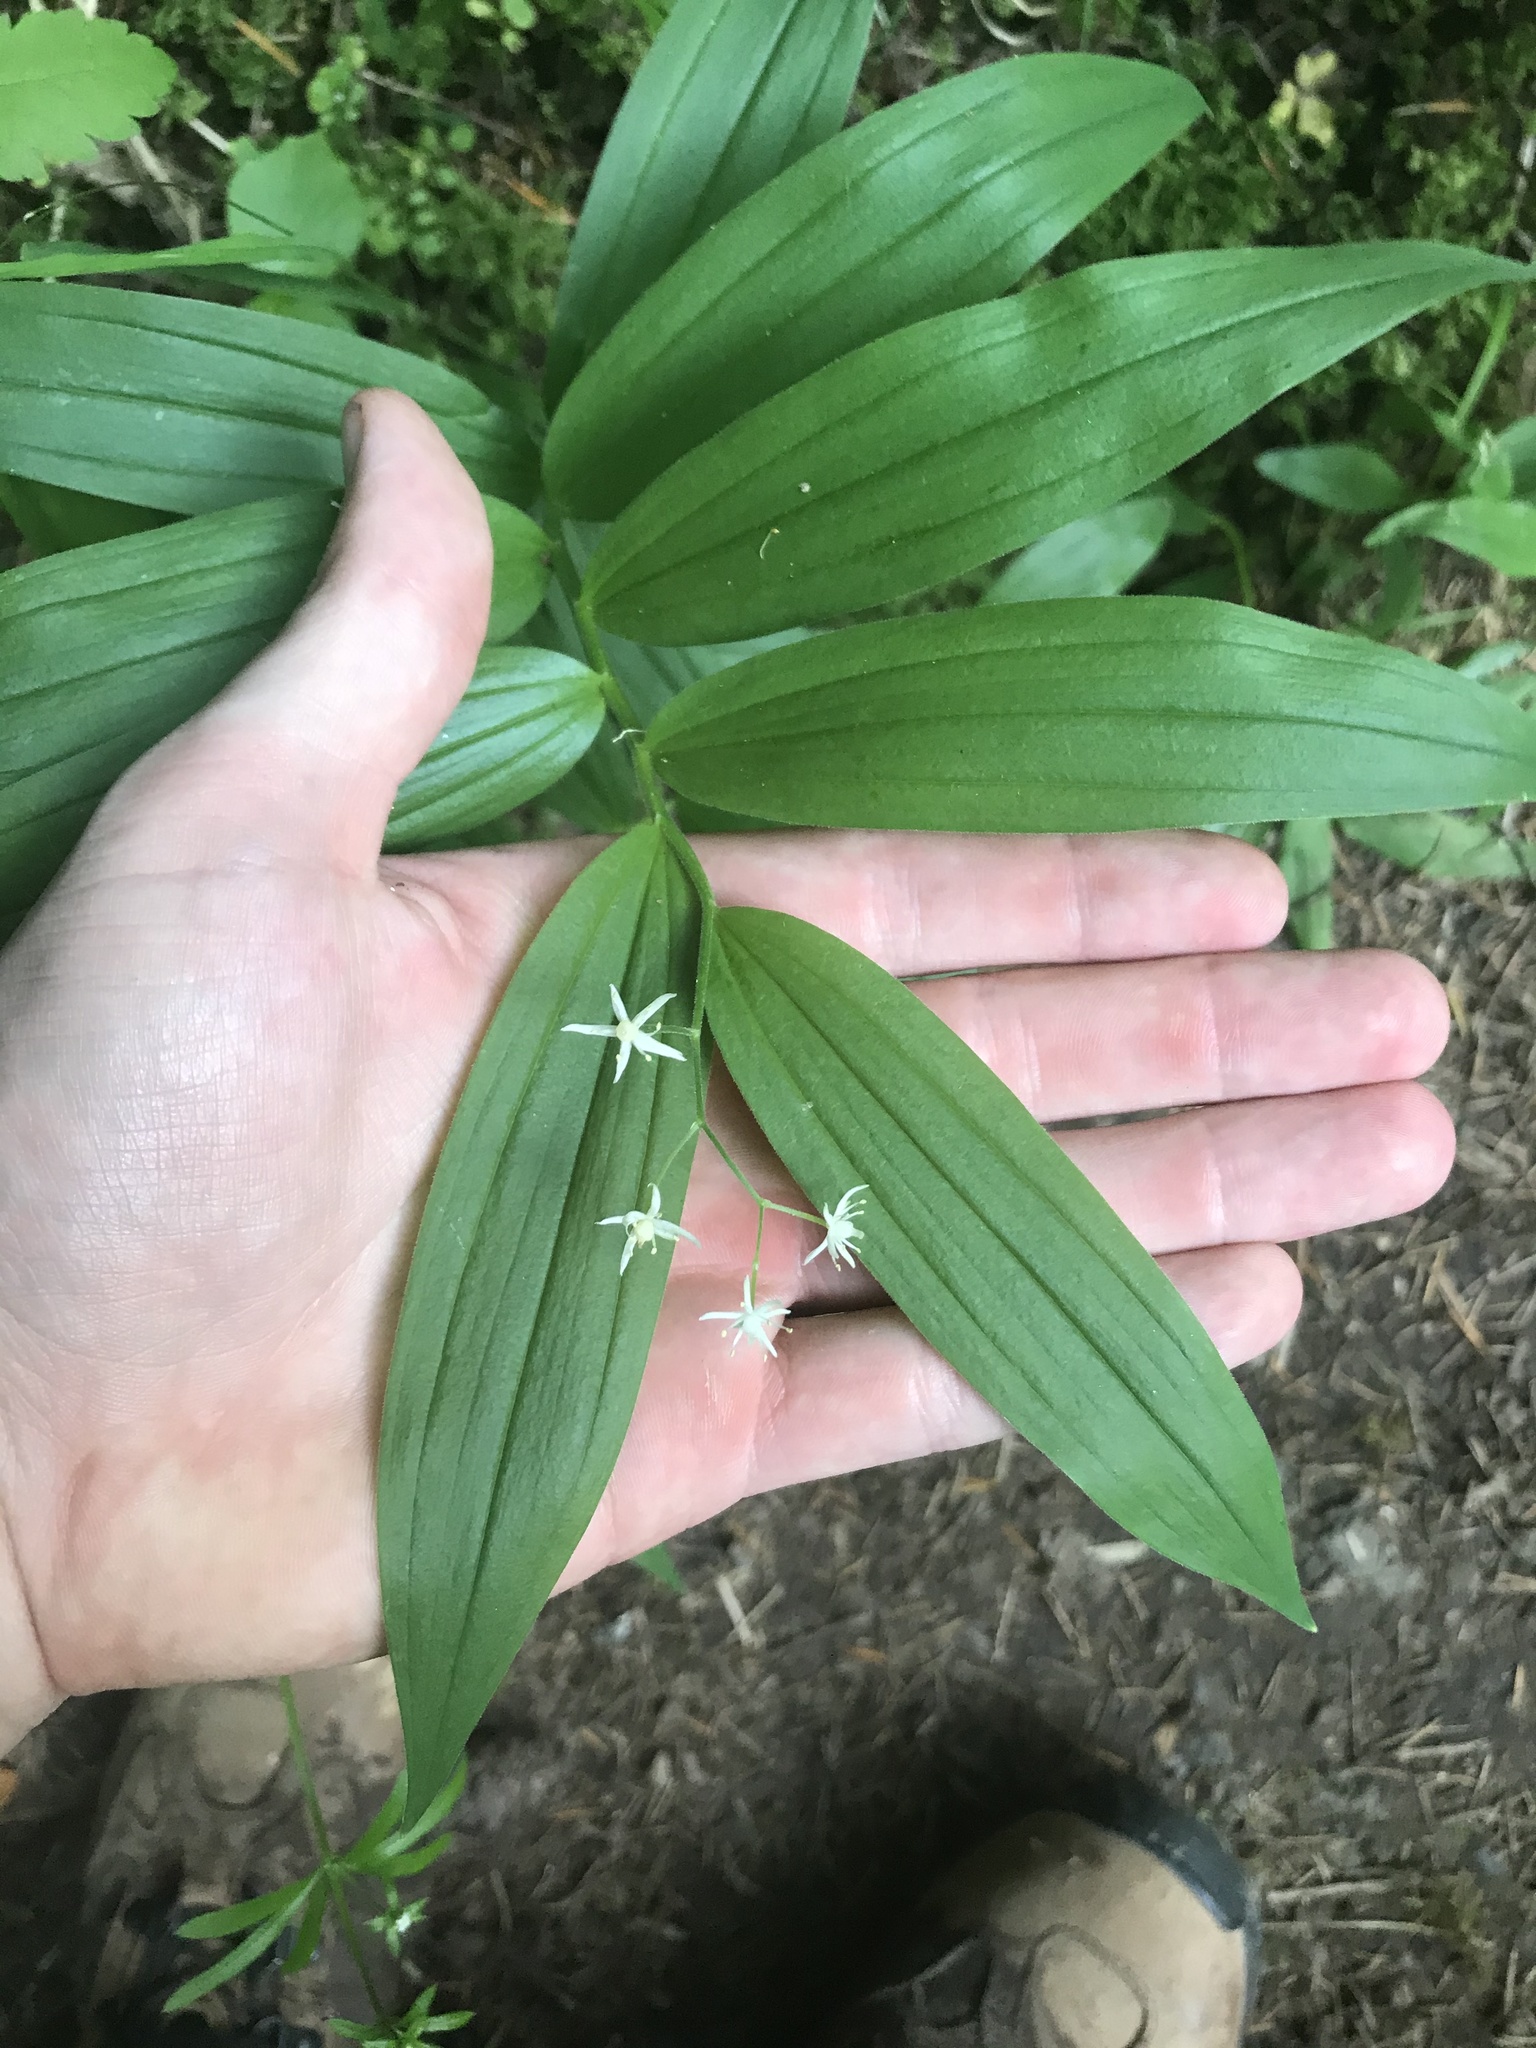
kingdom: Plantae
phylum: Tracheophyta
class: Liliopsida
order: Asparagales
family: Asparagaceae
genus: Maianthemum
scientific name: Maianthemum stellatum
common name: Little false solomon's seal
